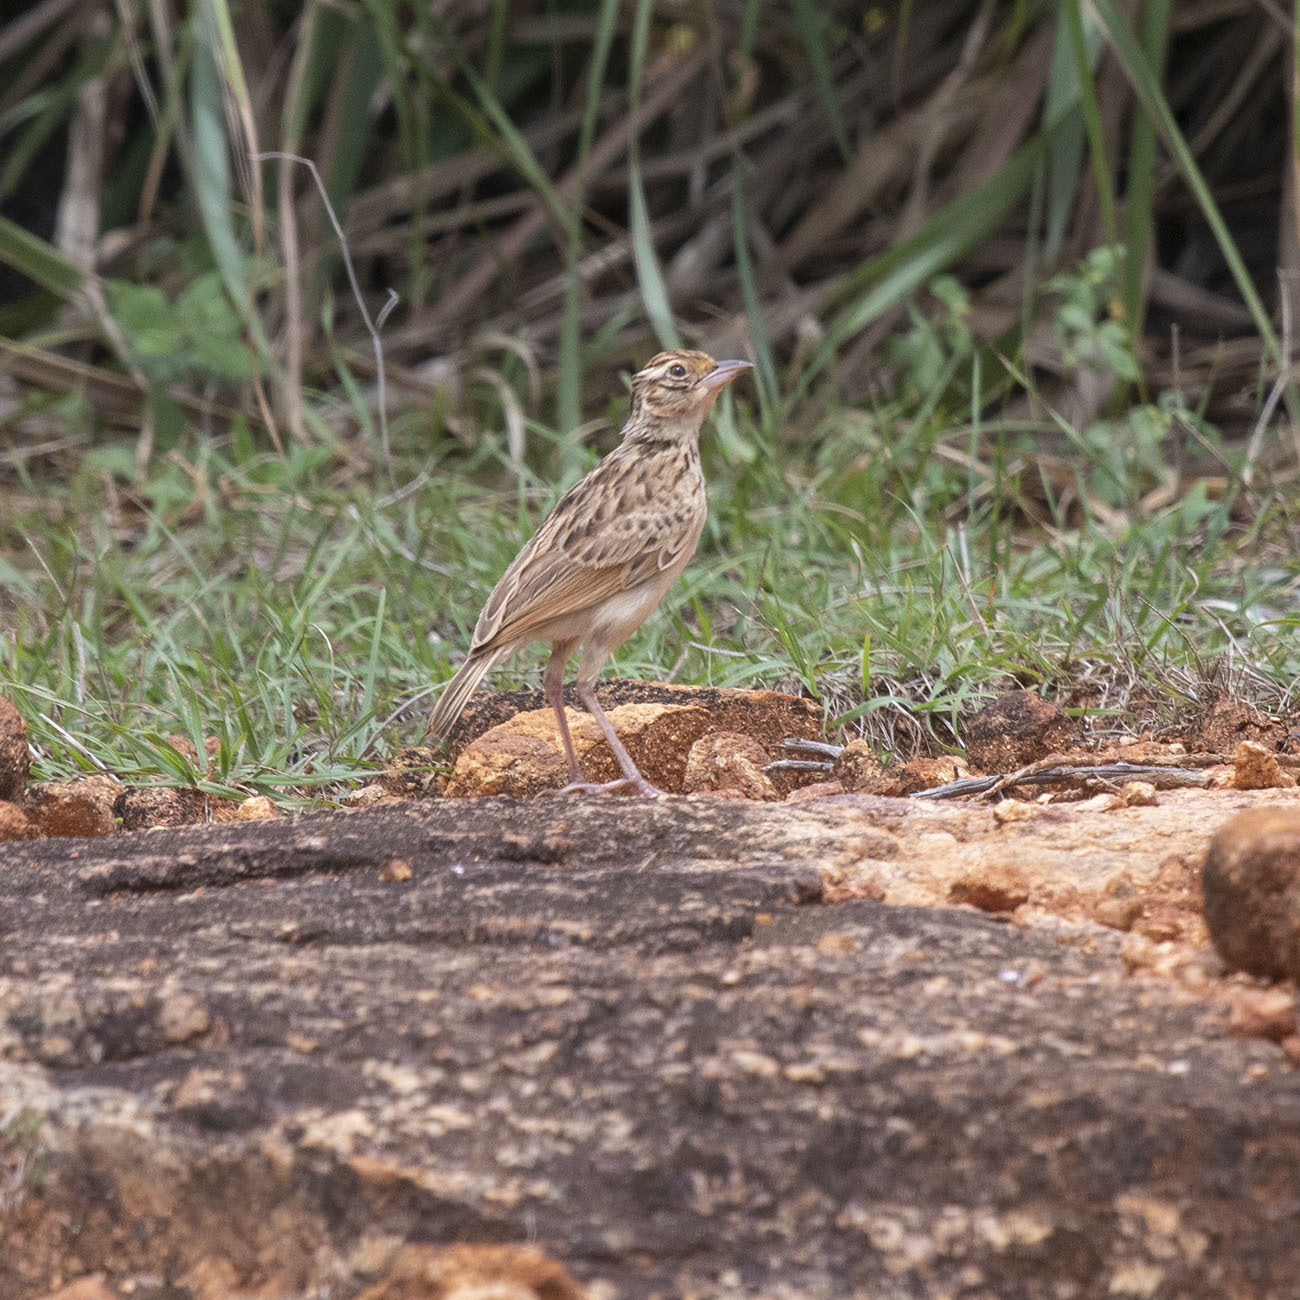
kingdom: Animalia
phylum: Chordata
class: Aves
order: Passeriformes
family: Alaudidae
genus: Mirafra
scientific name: Mirafra affinis
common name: Jerdon's bushlark
